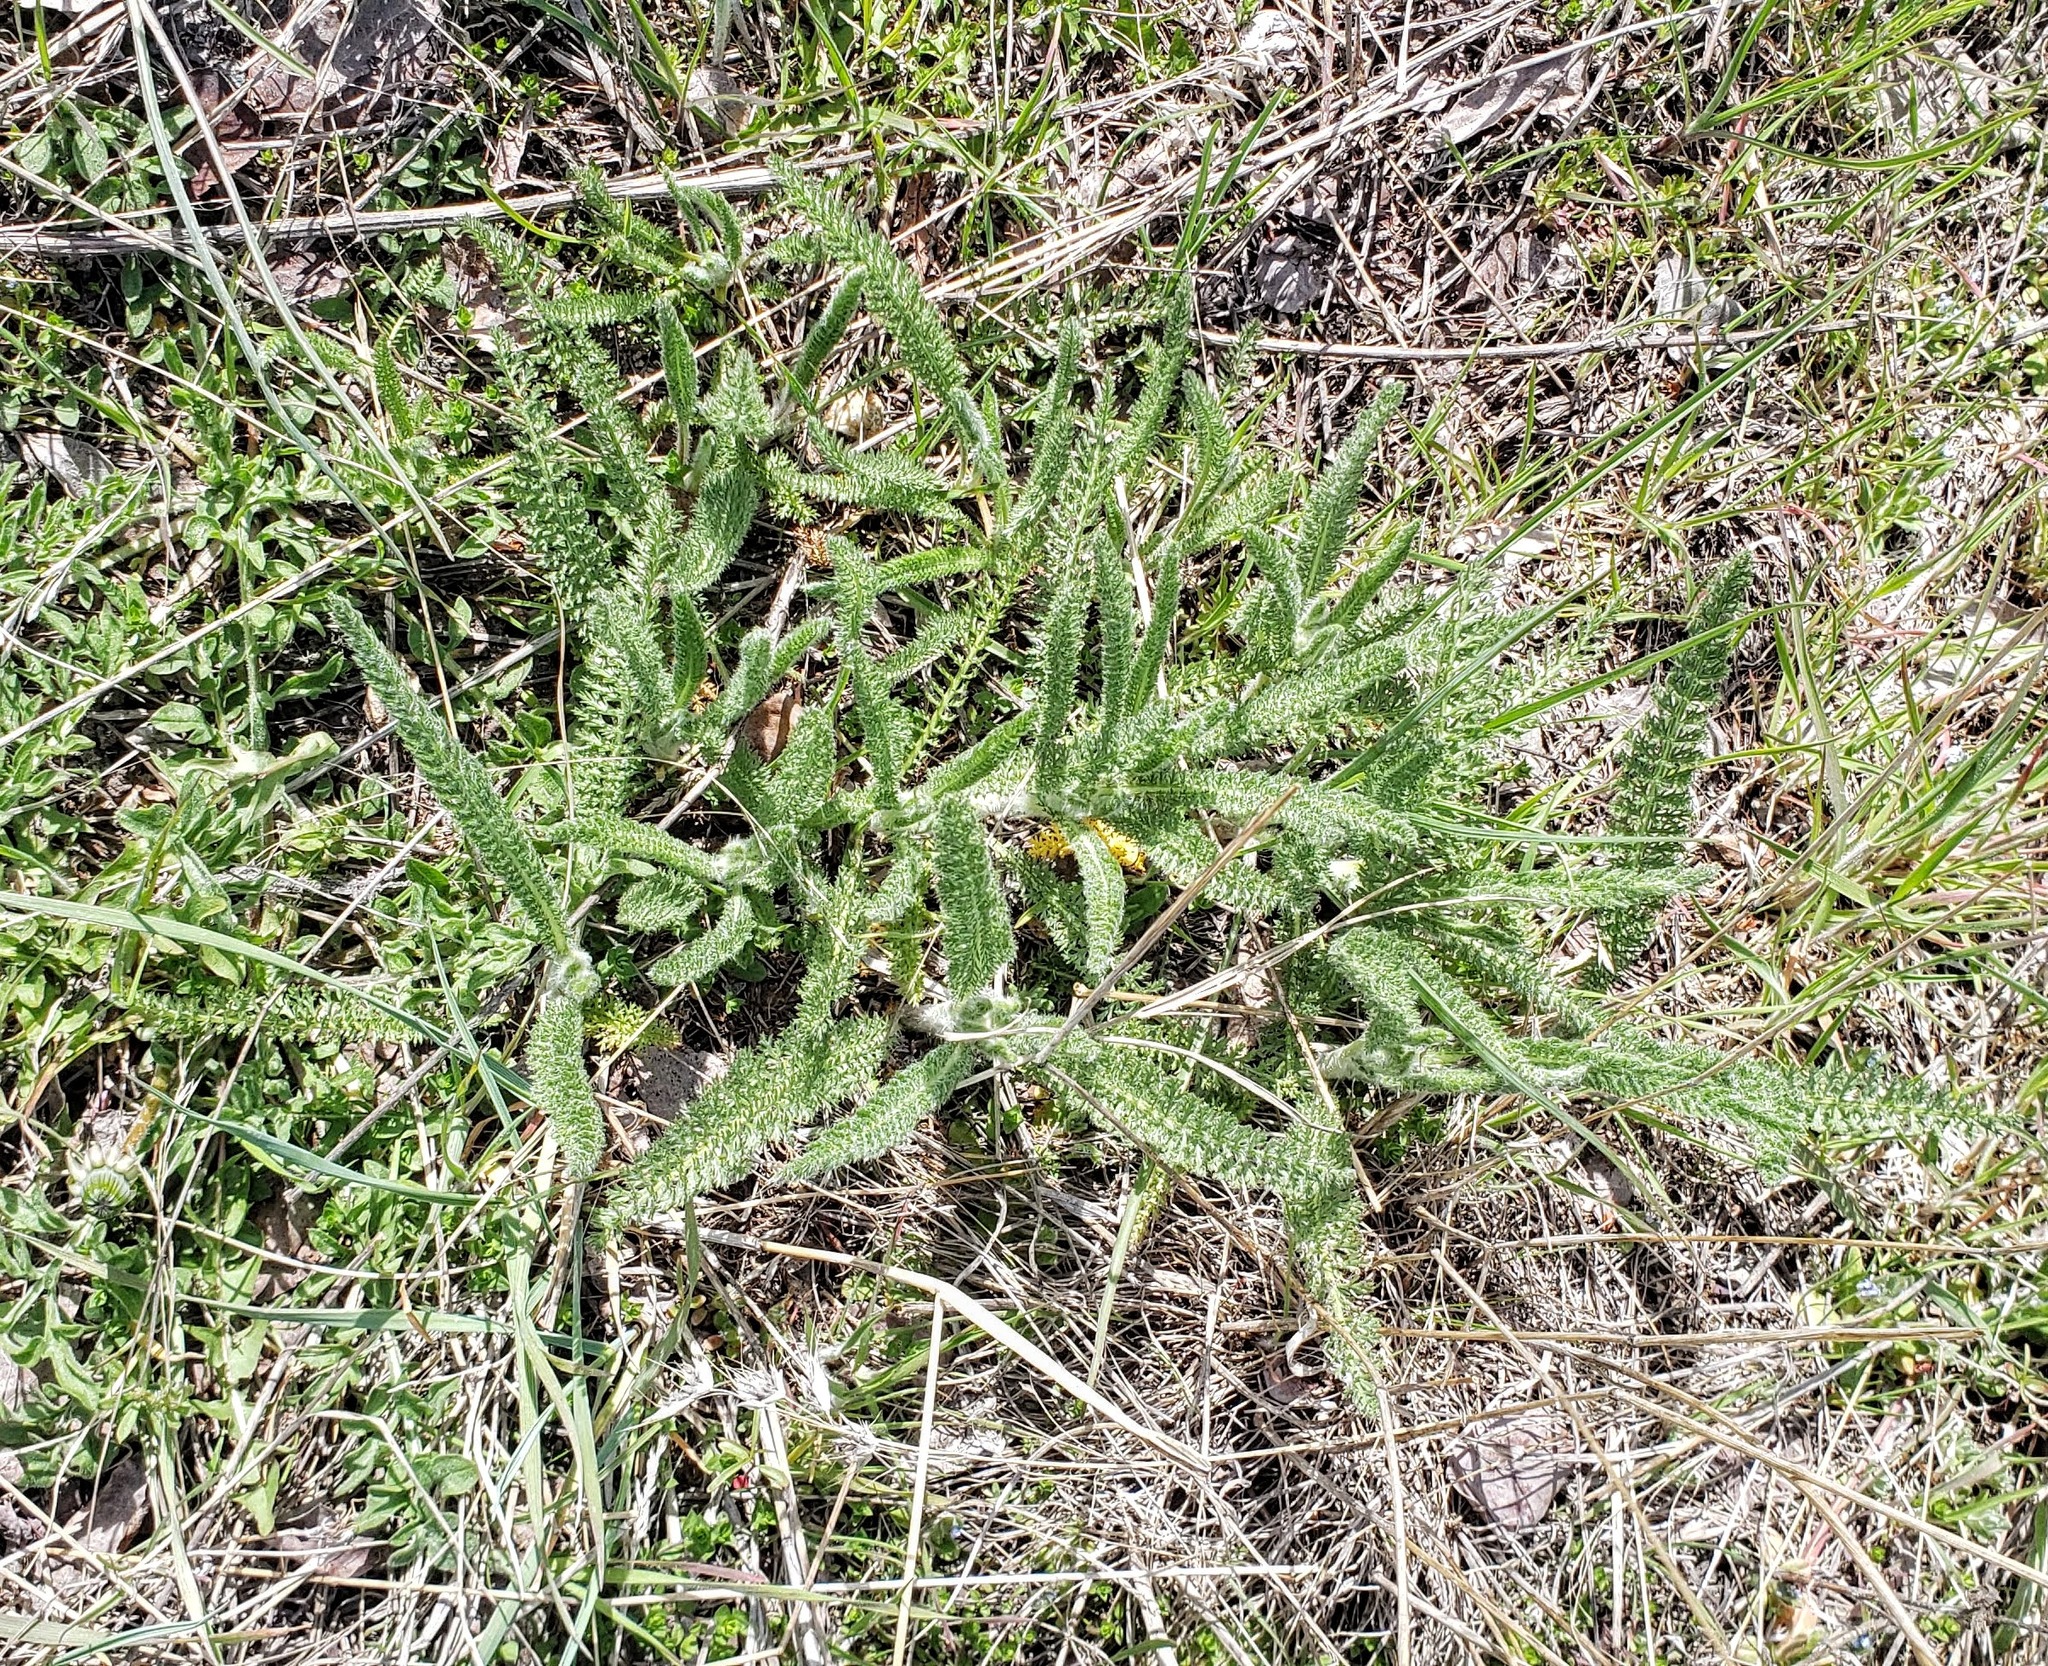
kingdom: Plantae
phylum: Tracheophyta
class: Magnoliopsida
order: Asterales
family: Asteraceae
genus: Achillea
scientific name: Achillea millefolium
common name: Yarrow
